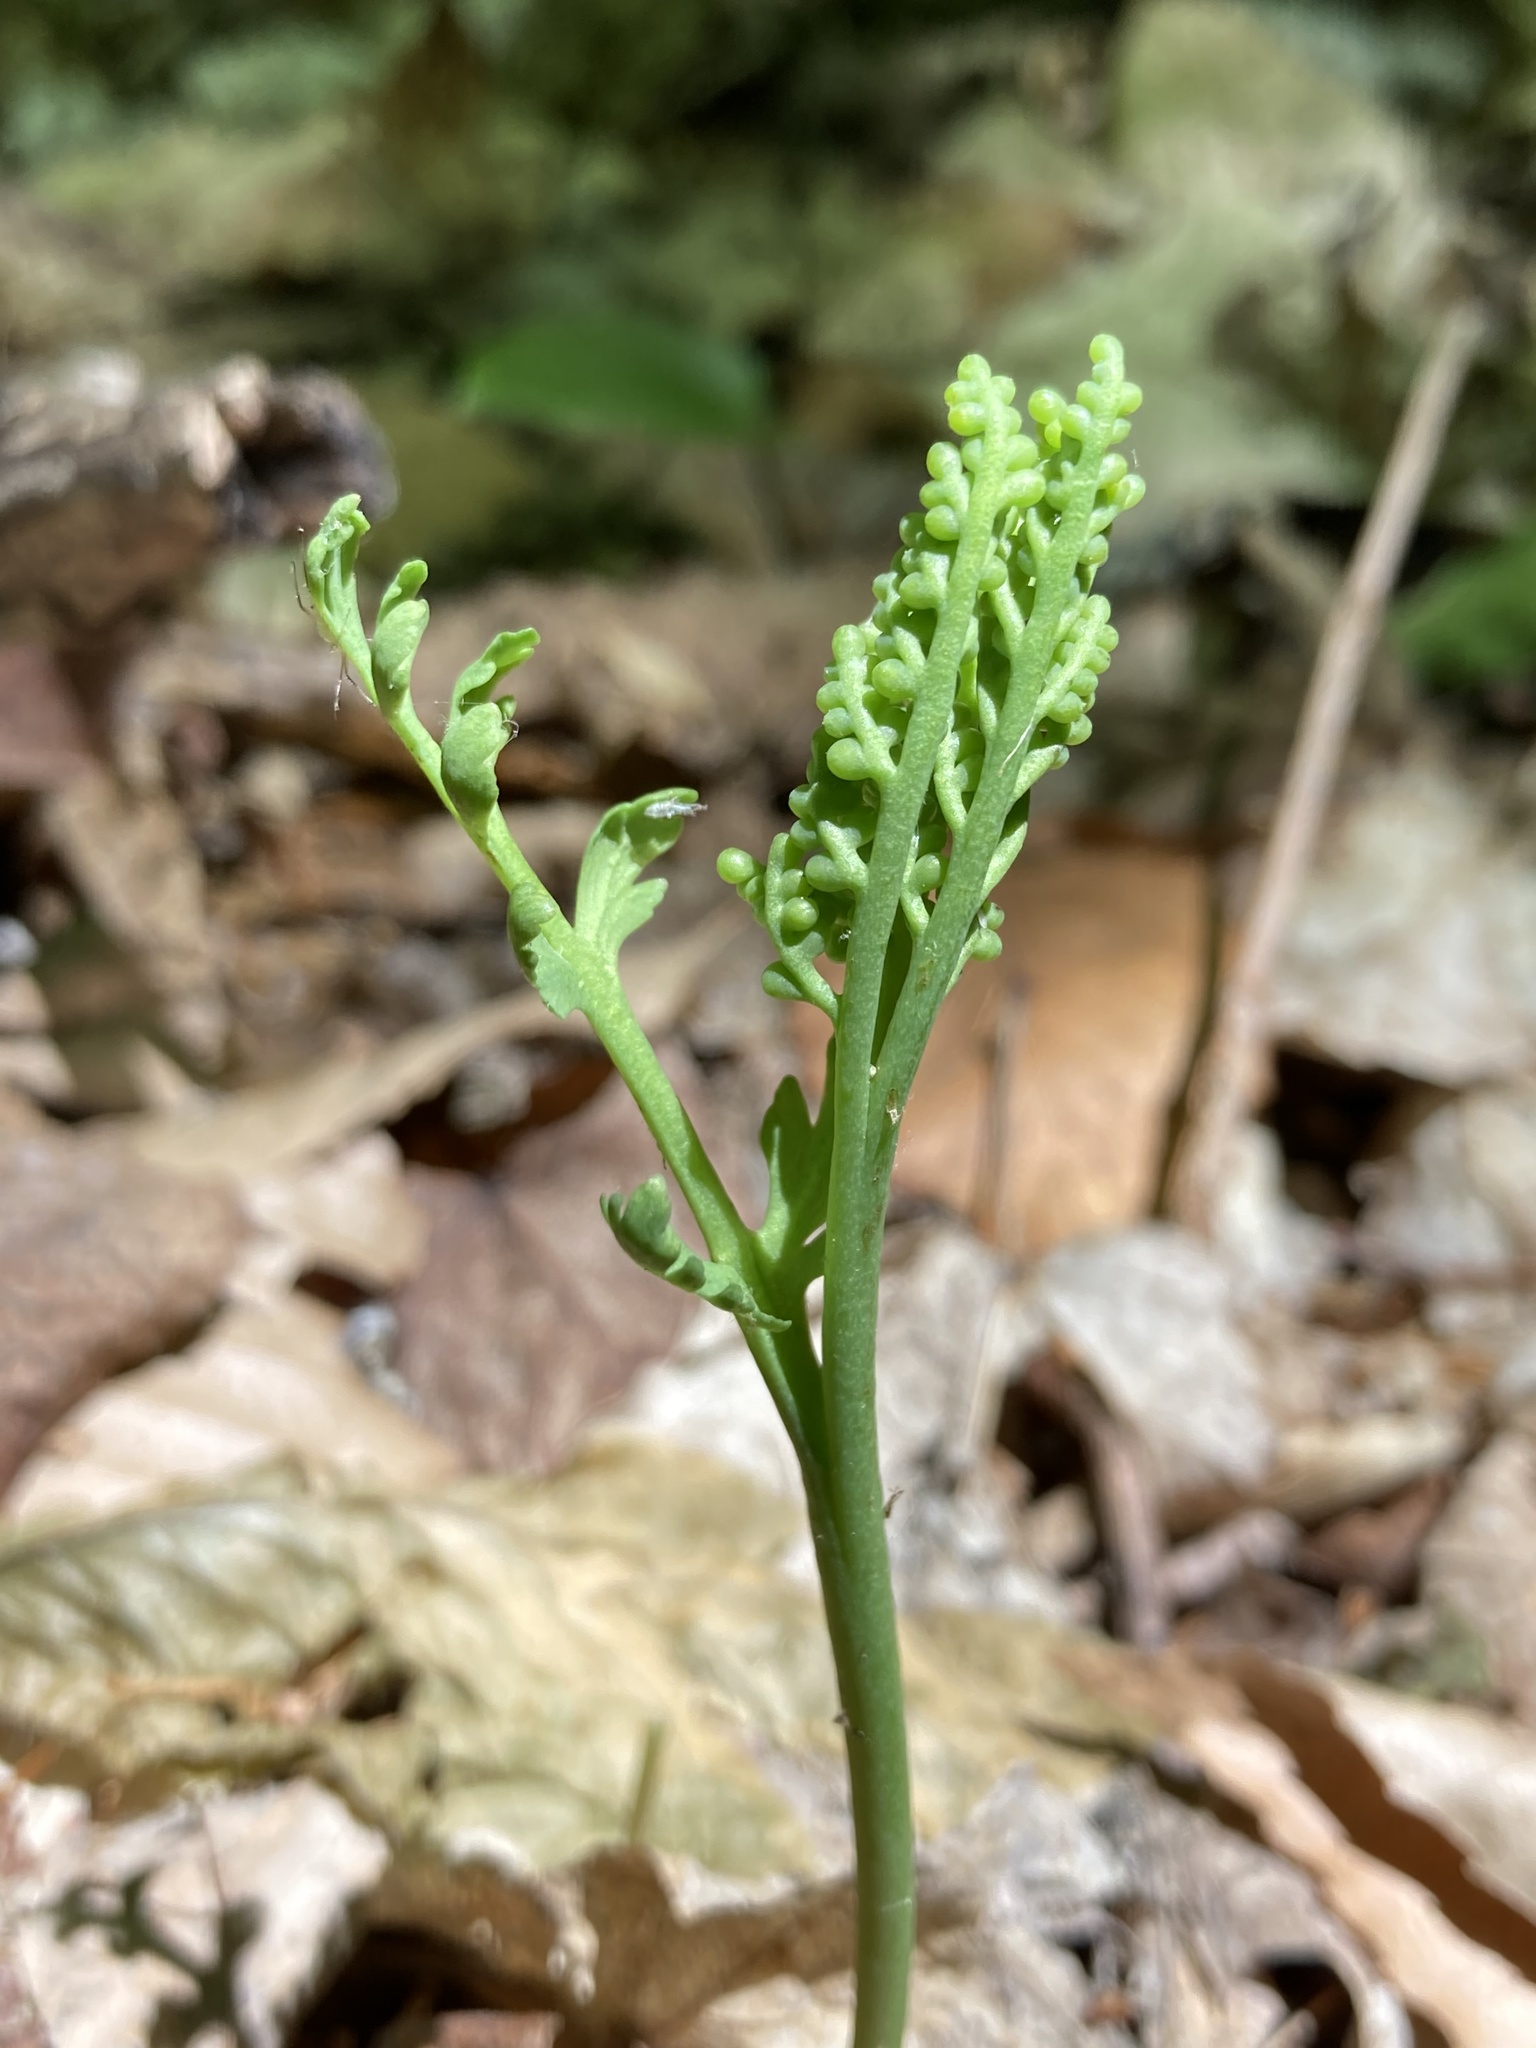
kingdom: Plantae
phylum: Tracheophyta
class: Polypodiopsida
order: Ophioglossales
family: Ophioglossaceae
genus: Botrychium
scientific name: Botrychium matricariifolium
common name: Branched moonwort
